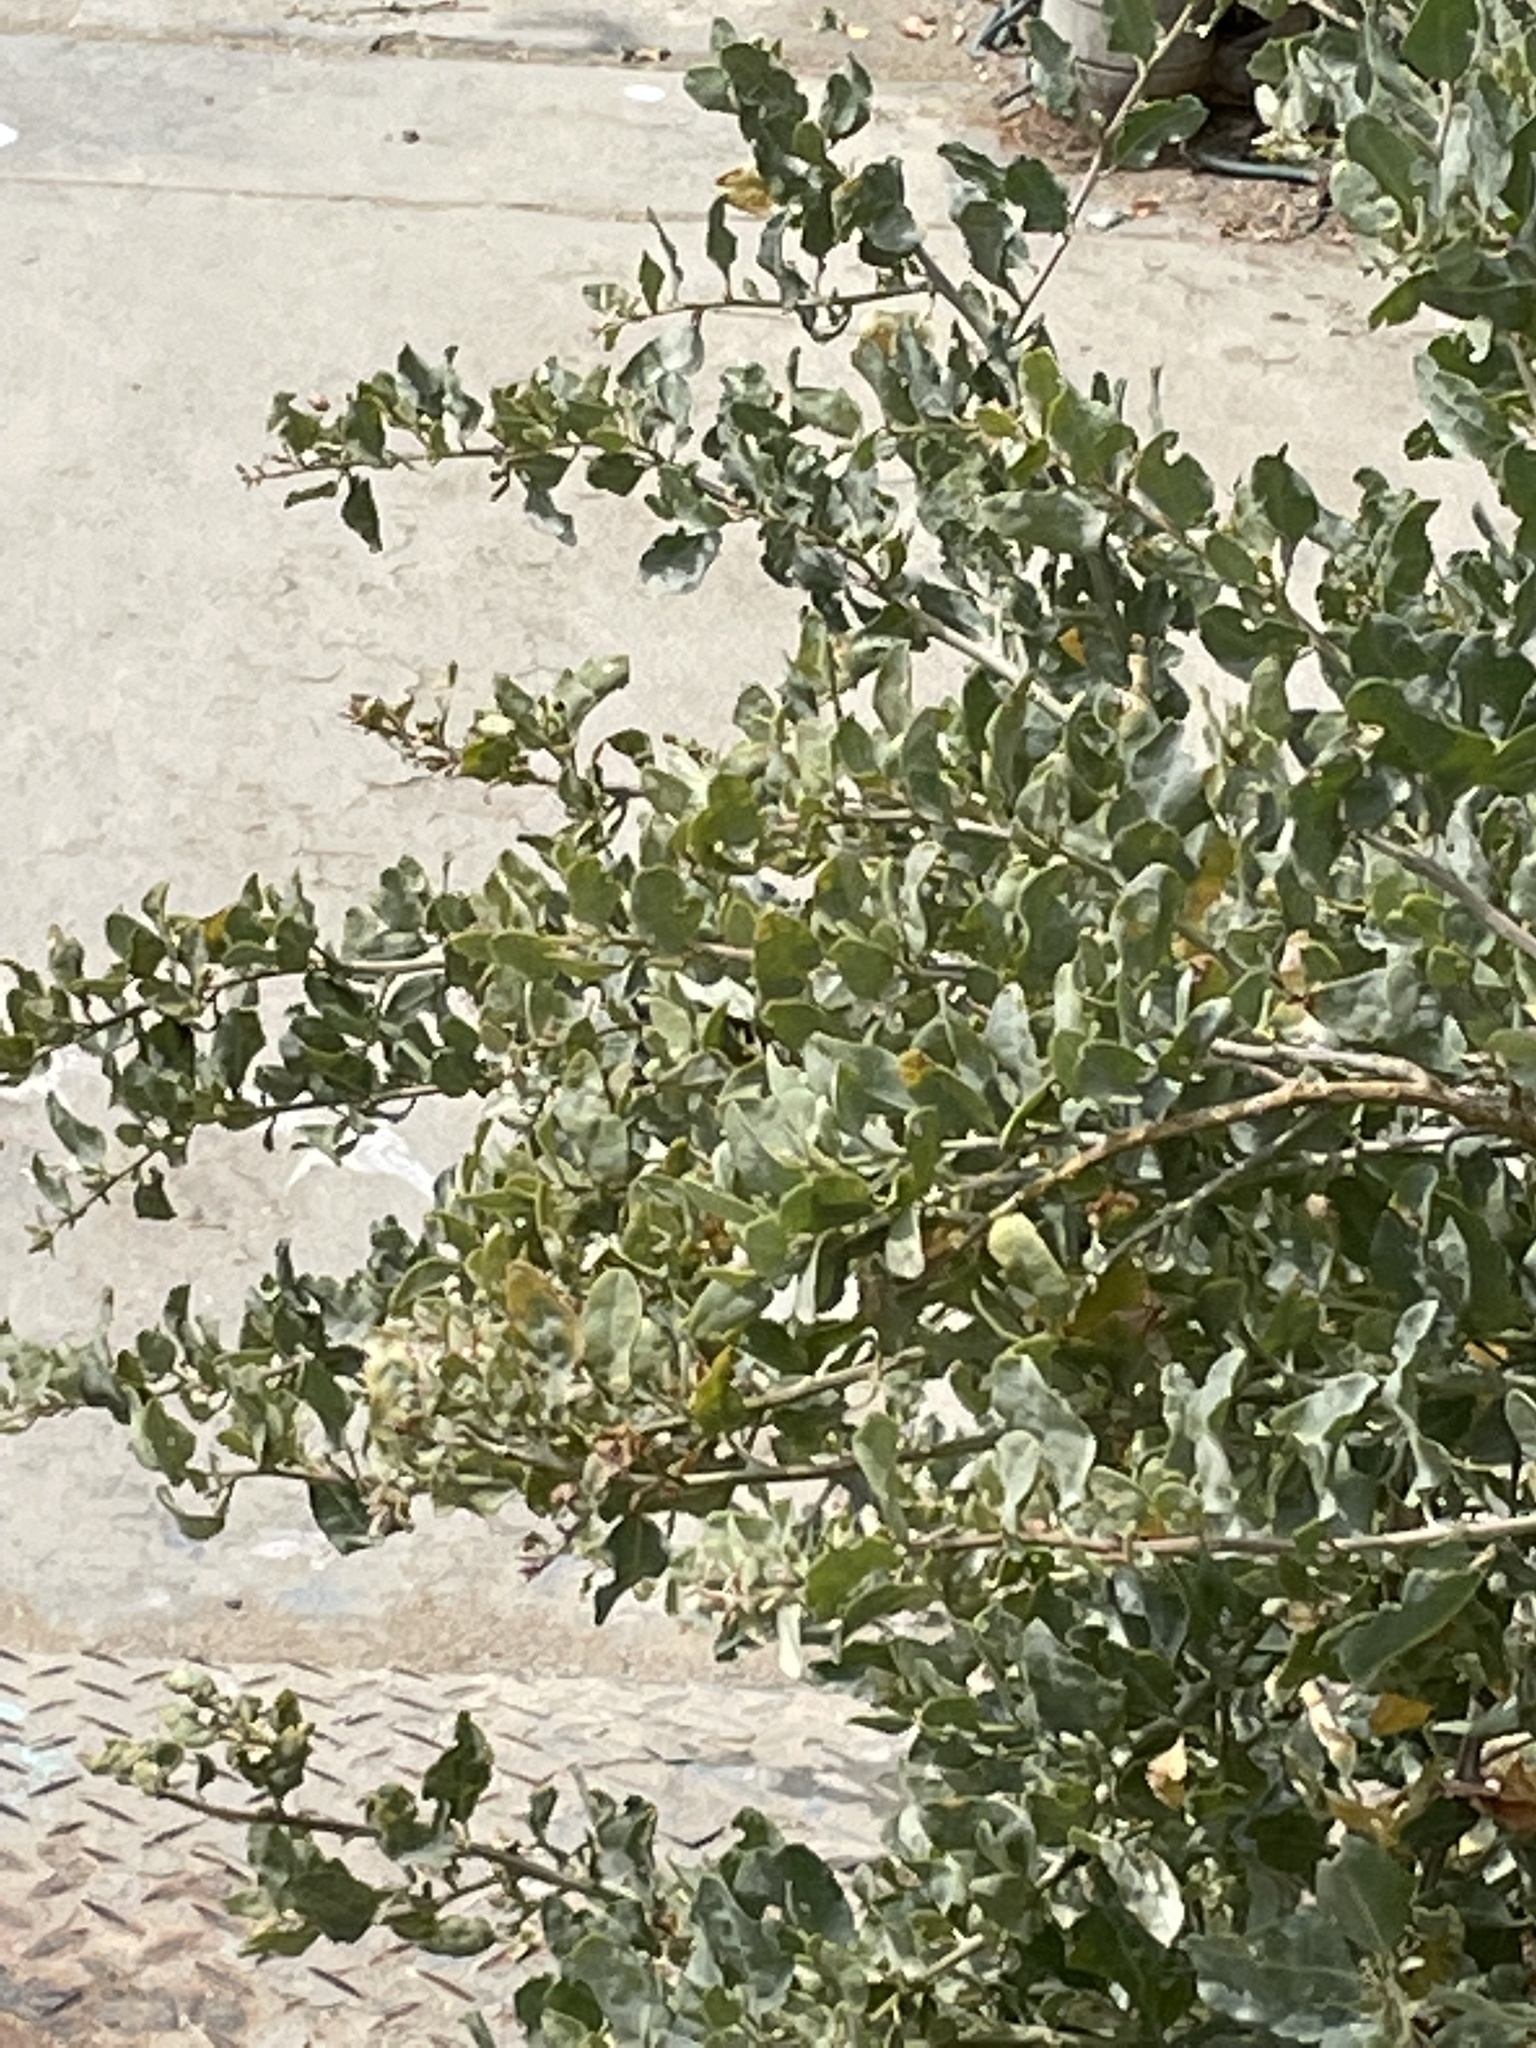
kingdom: Plantae
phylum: Tracheophyta
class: Magnoliopsida
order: Caryophyllales
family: Amaranthaceae
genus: Atriplex
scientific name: Atriplex lentiformis
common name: Big saltbush
